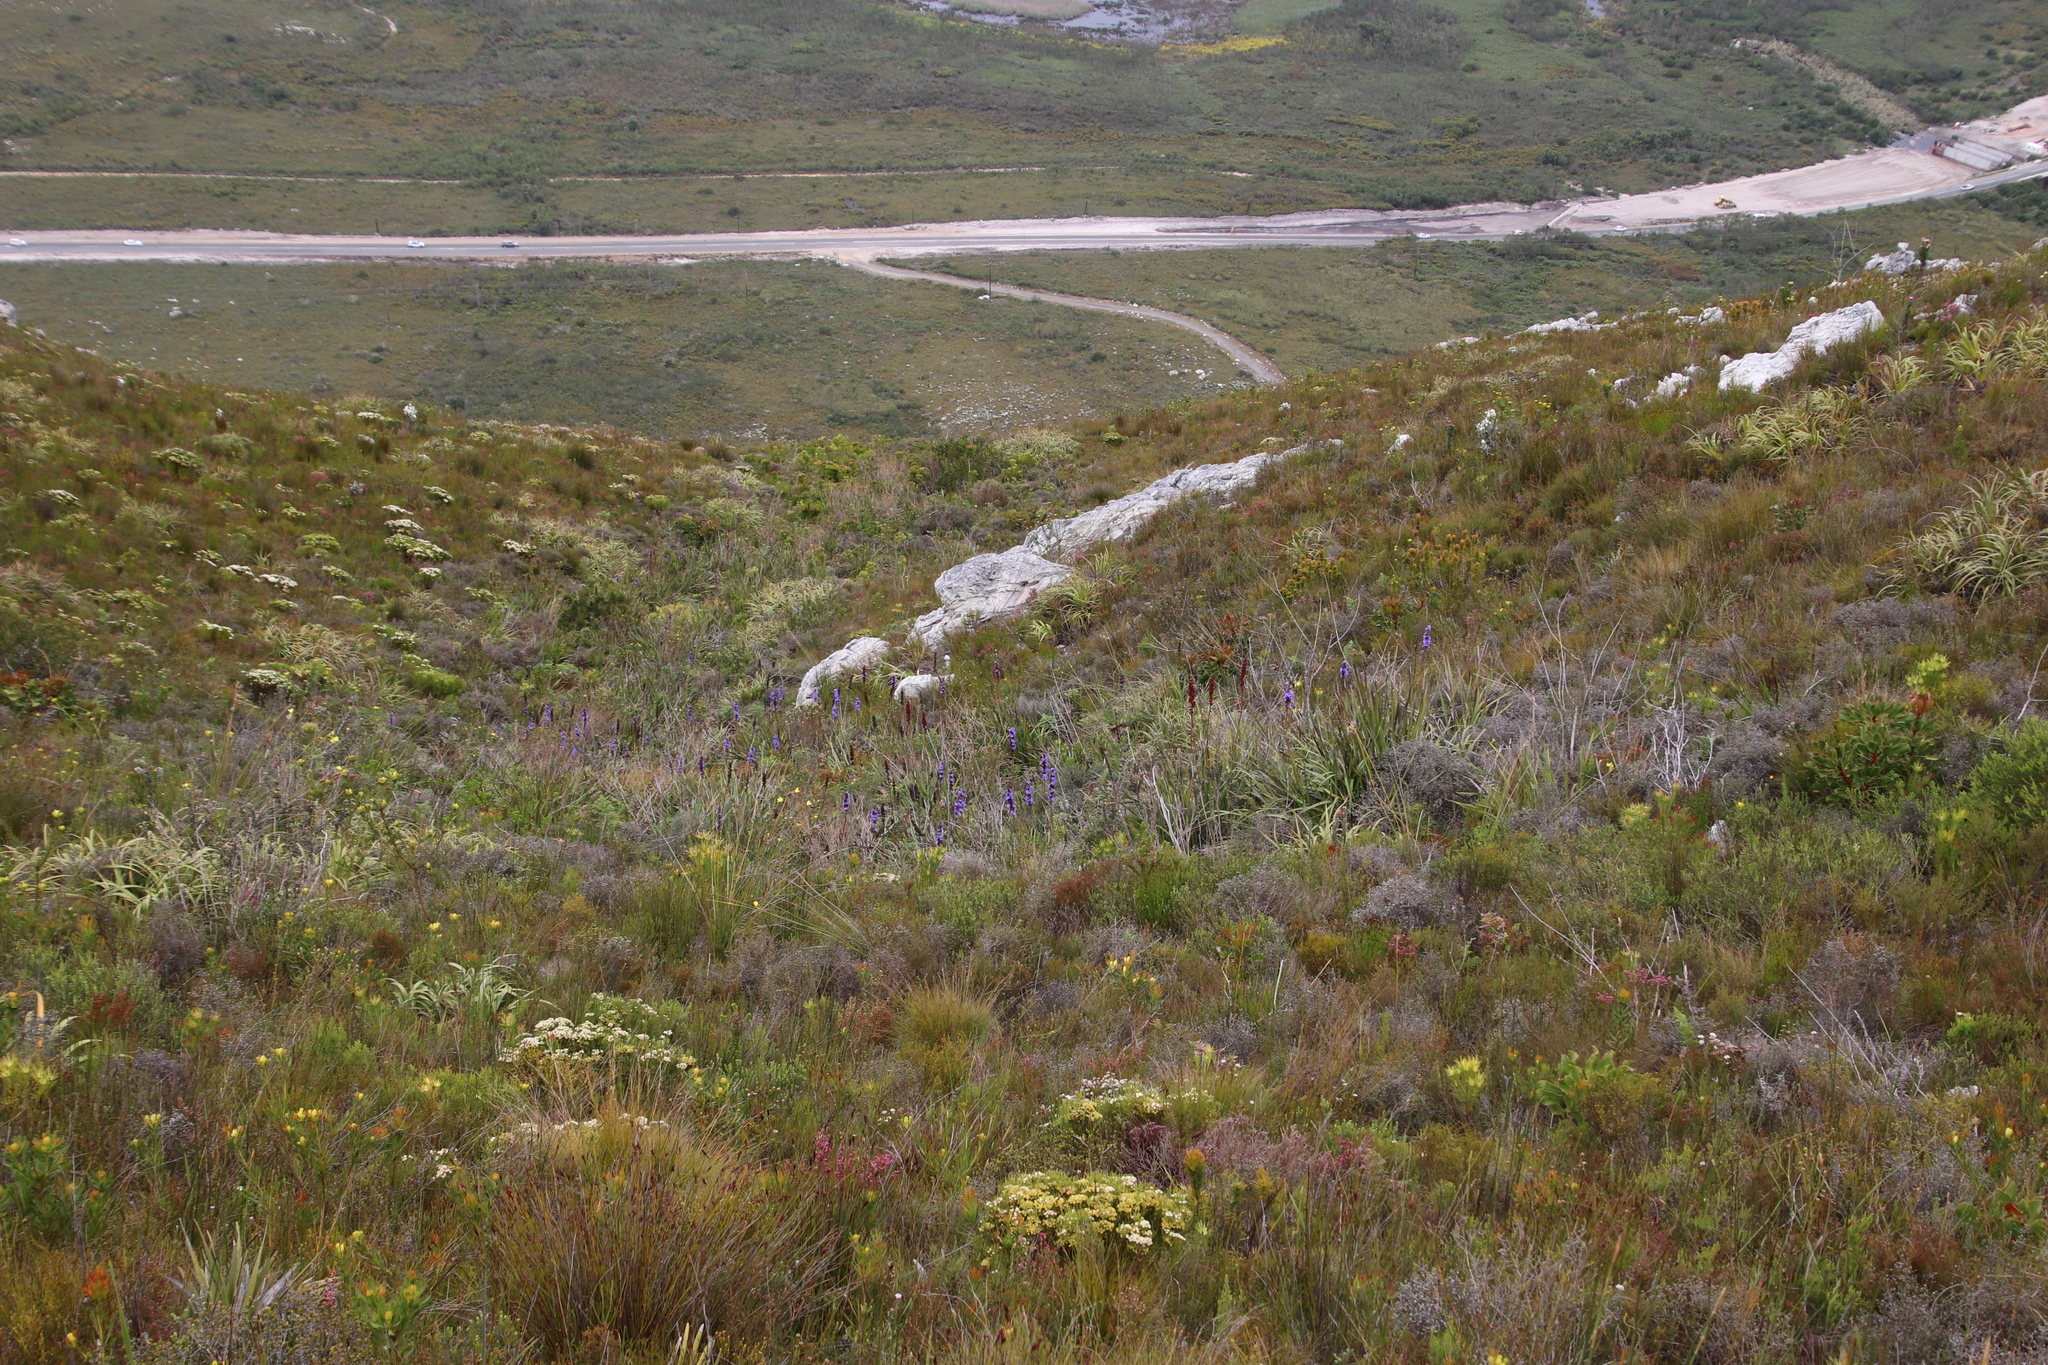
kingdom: Plantae
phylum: Tracheophyta
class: Liliopsida
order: Asparagales
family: Iridaceae
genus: Aristea
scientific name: Aristea capitata
